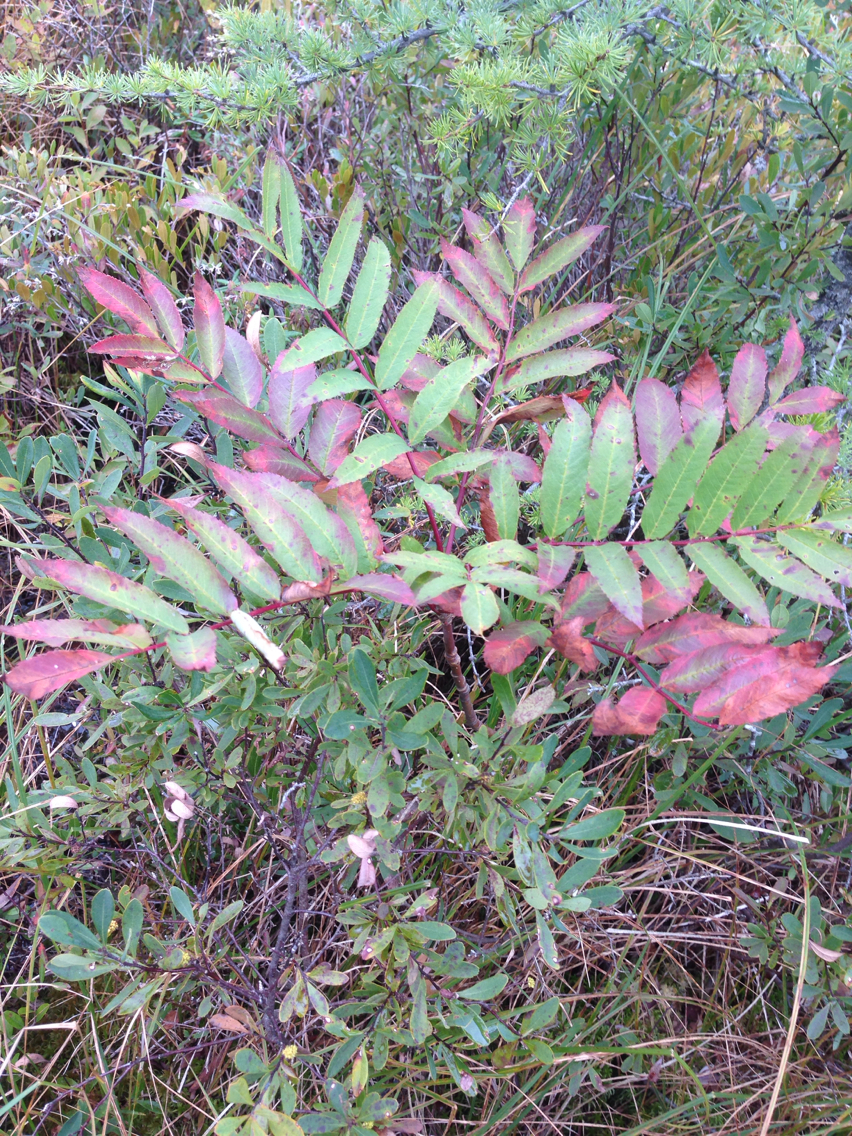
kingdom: Plantae
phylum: Tracheophyta
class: Magnoliopsida
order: Sapindales
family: Anacardiaceae
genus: Rhus
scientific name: Rhus glabra
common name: Scarlet sumac
